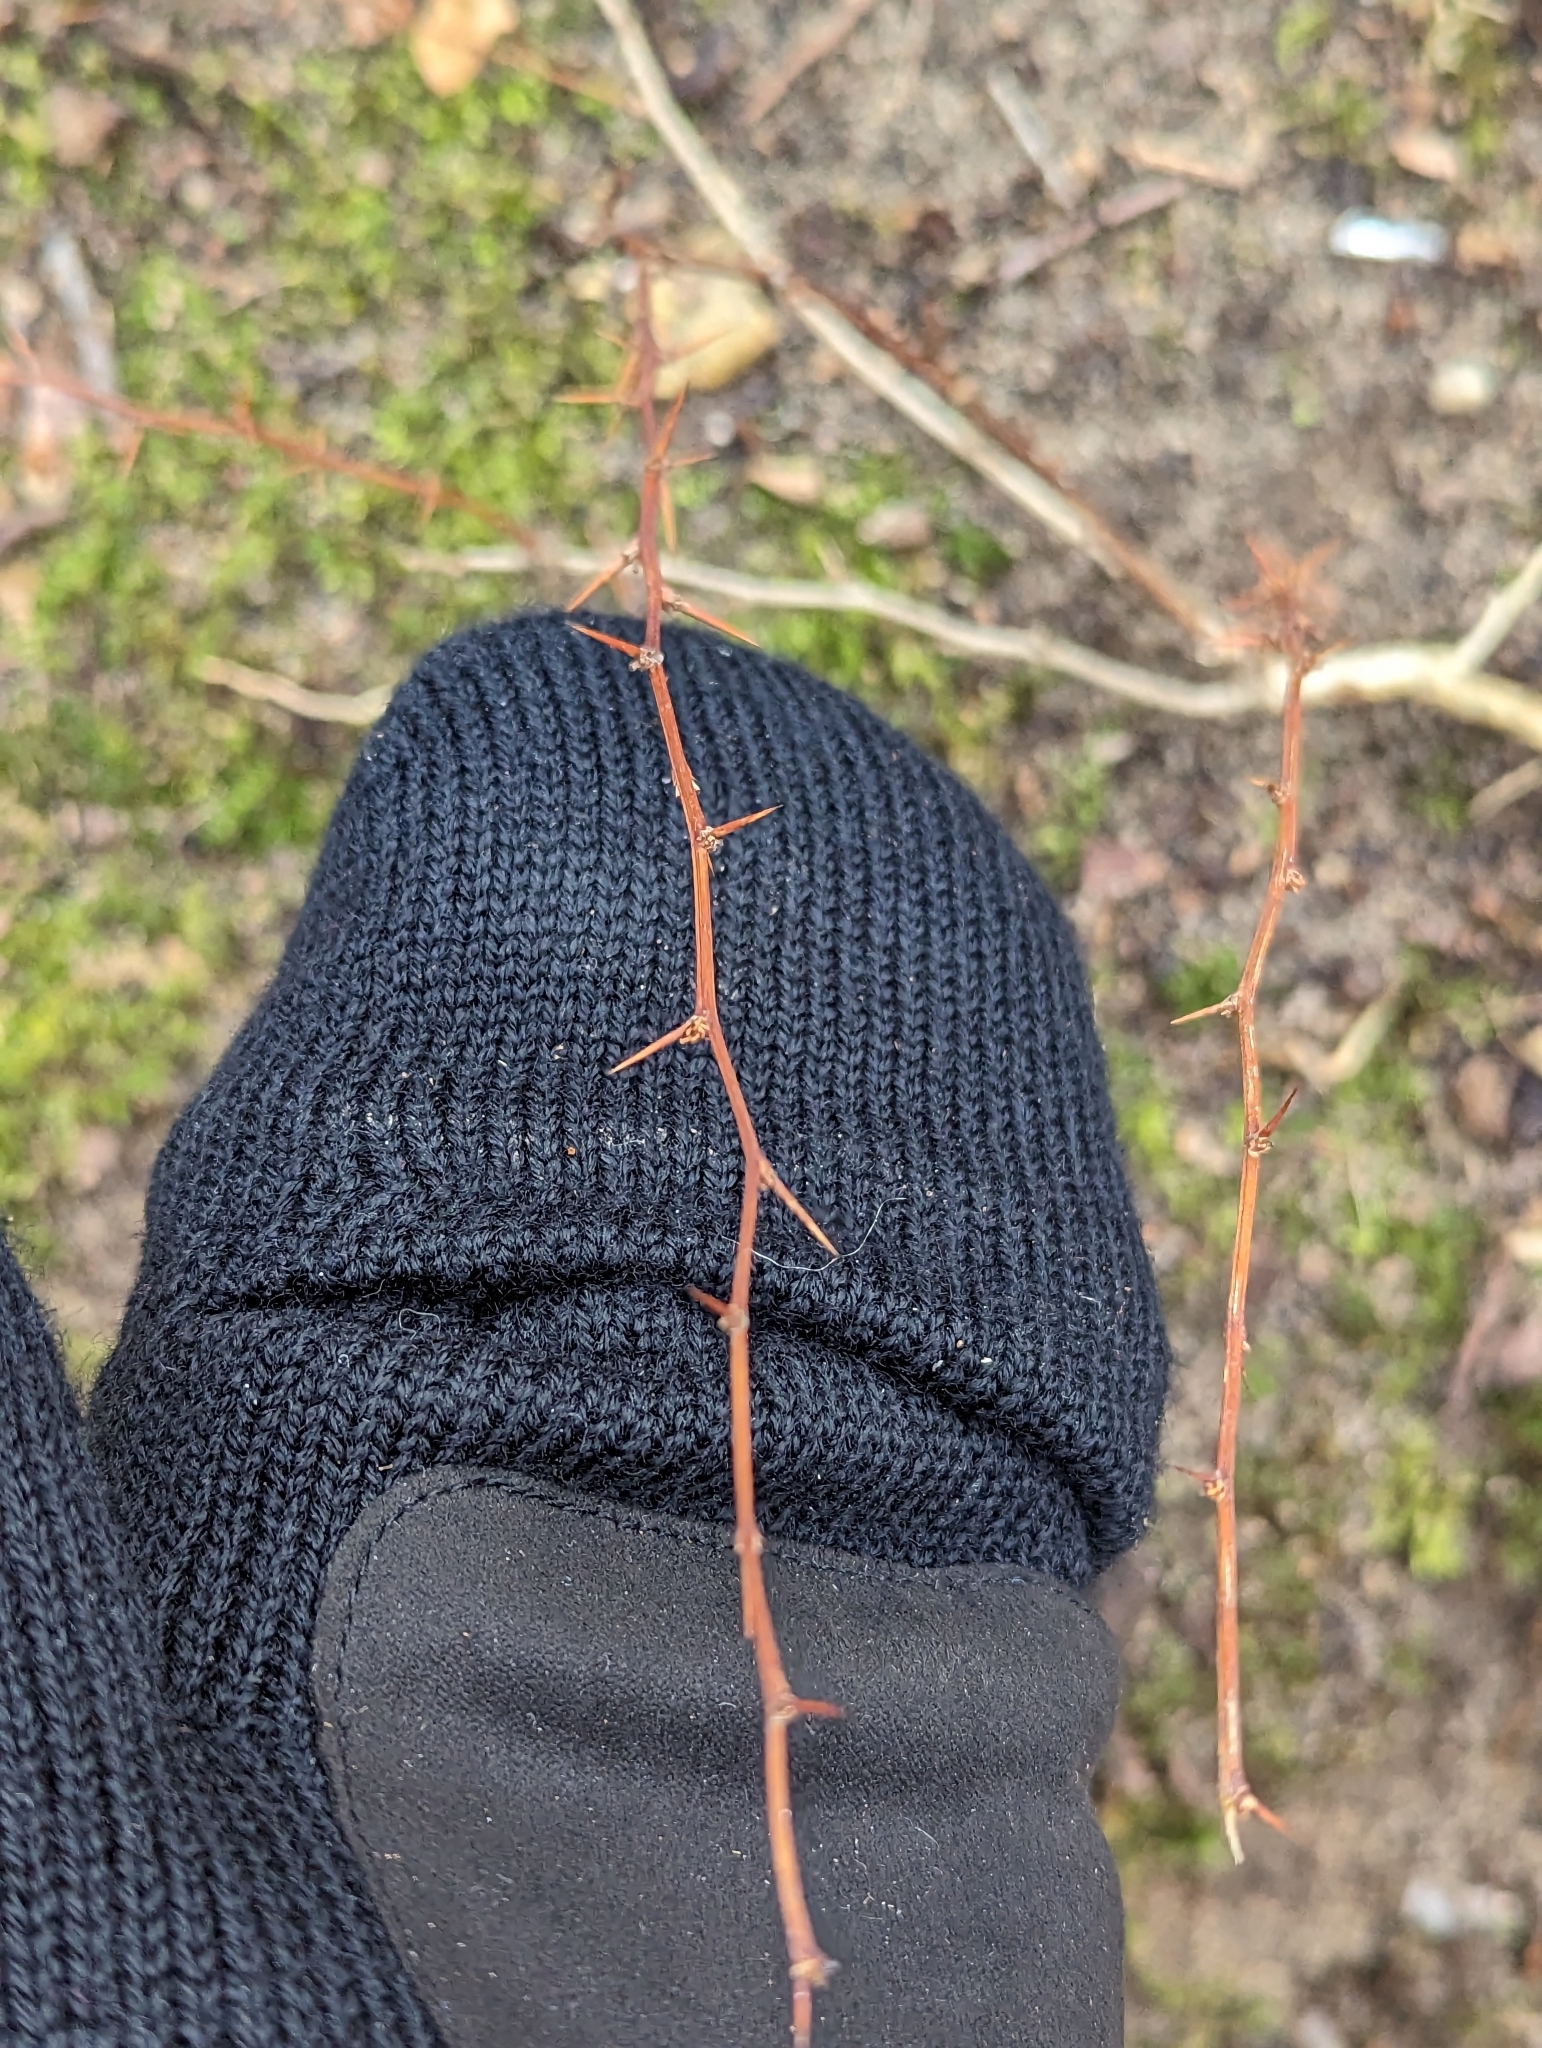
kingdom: Plantae
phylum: Tracheophyta
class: Magnoliopsida
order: Ranunculales
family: Berberidaceae
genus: Berberis
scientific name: Berberis thunbergii
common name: Japanese barberry
